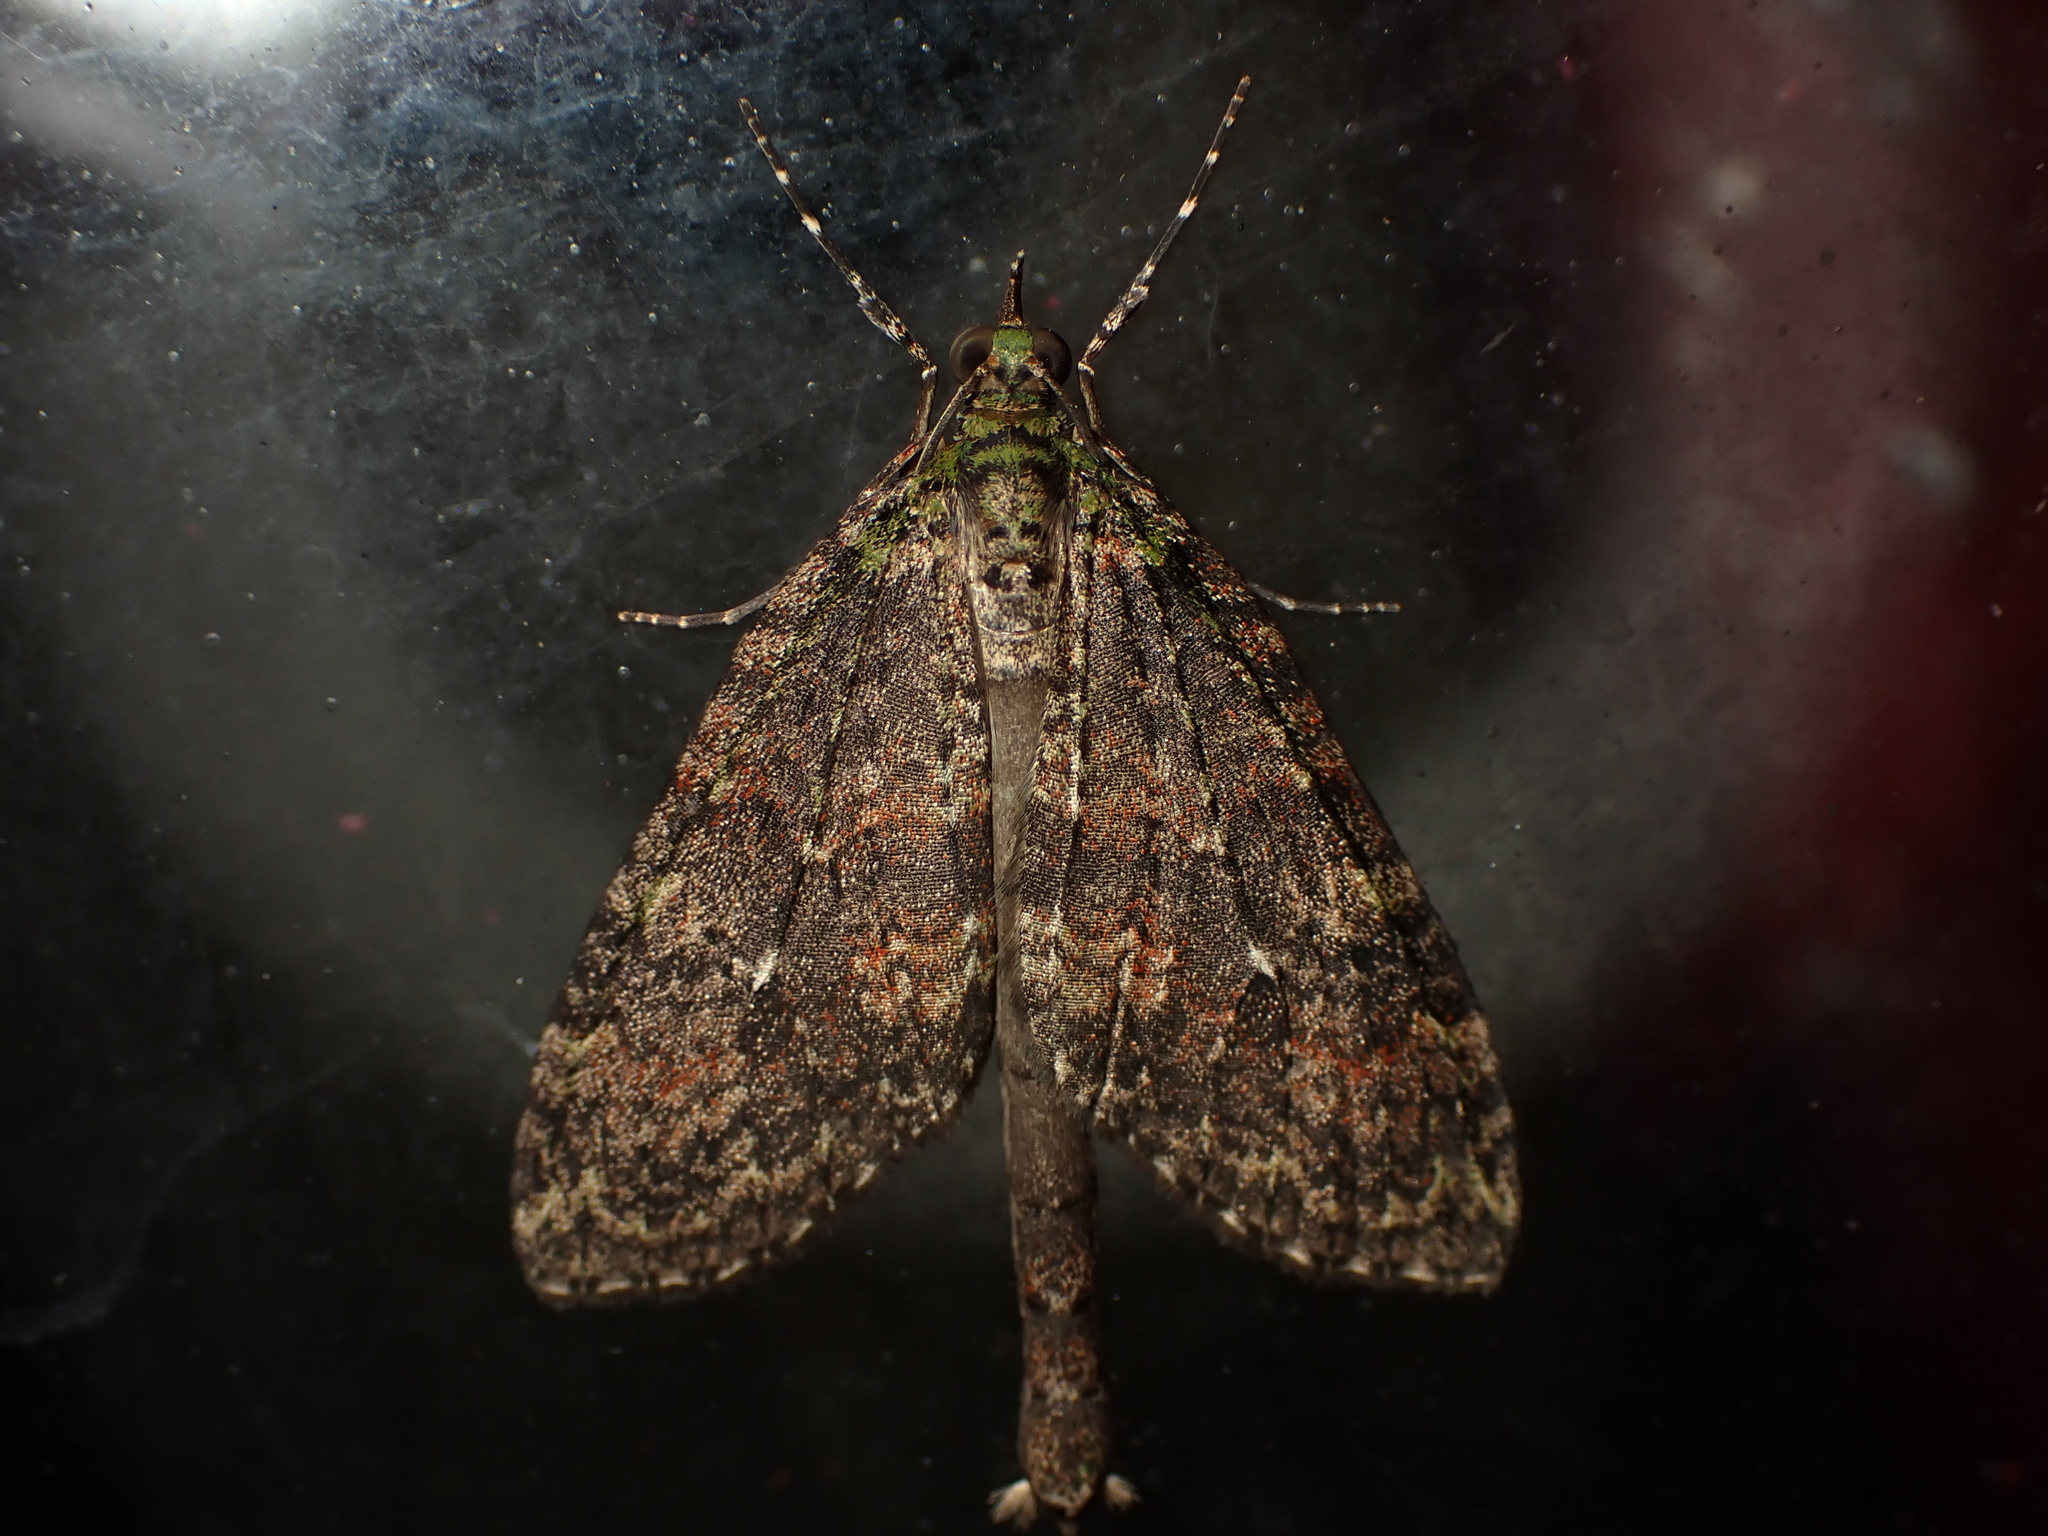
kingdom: Animalia
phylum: Arthropoda
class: Insecta
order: Lepidoptera
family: Geometridae
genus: Tatosoma
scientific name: Tatosoma transitaria
